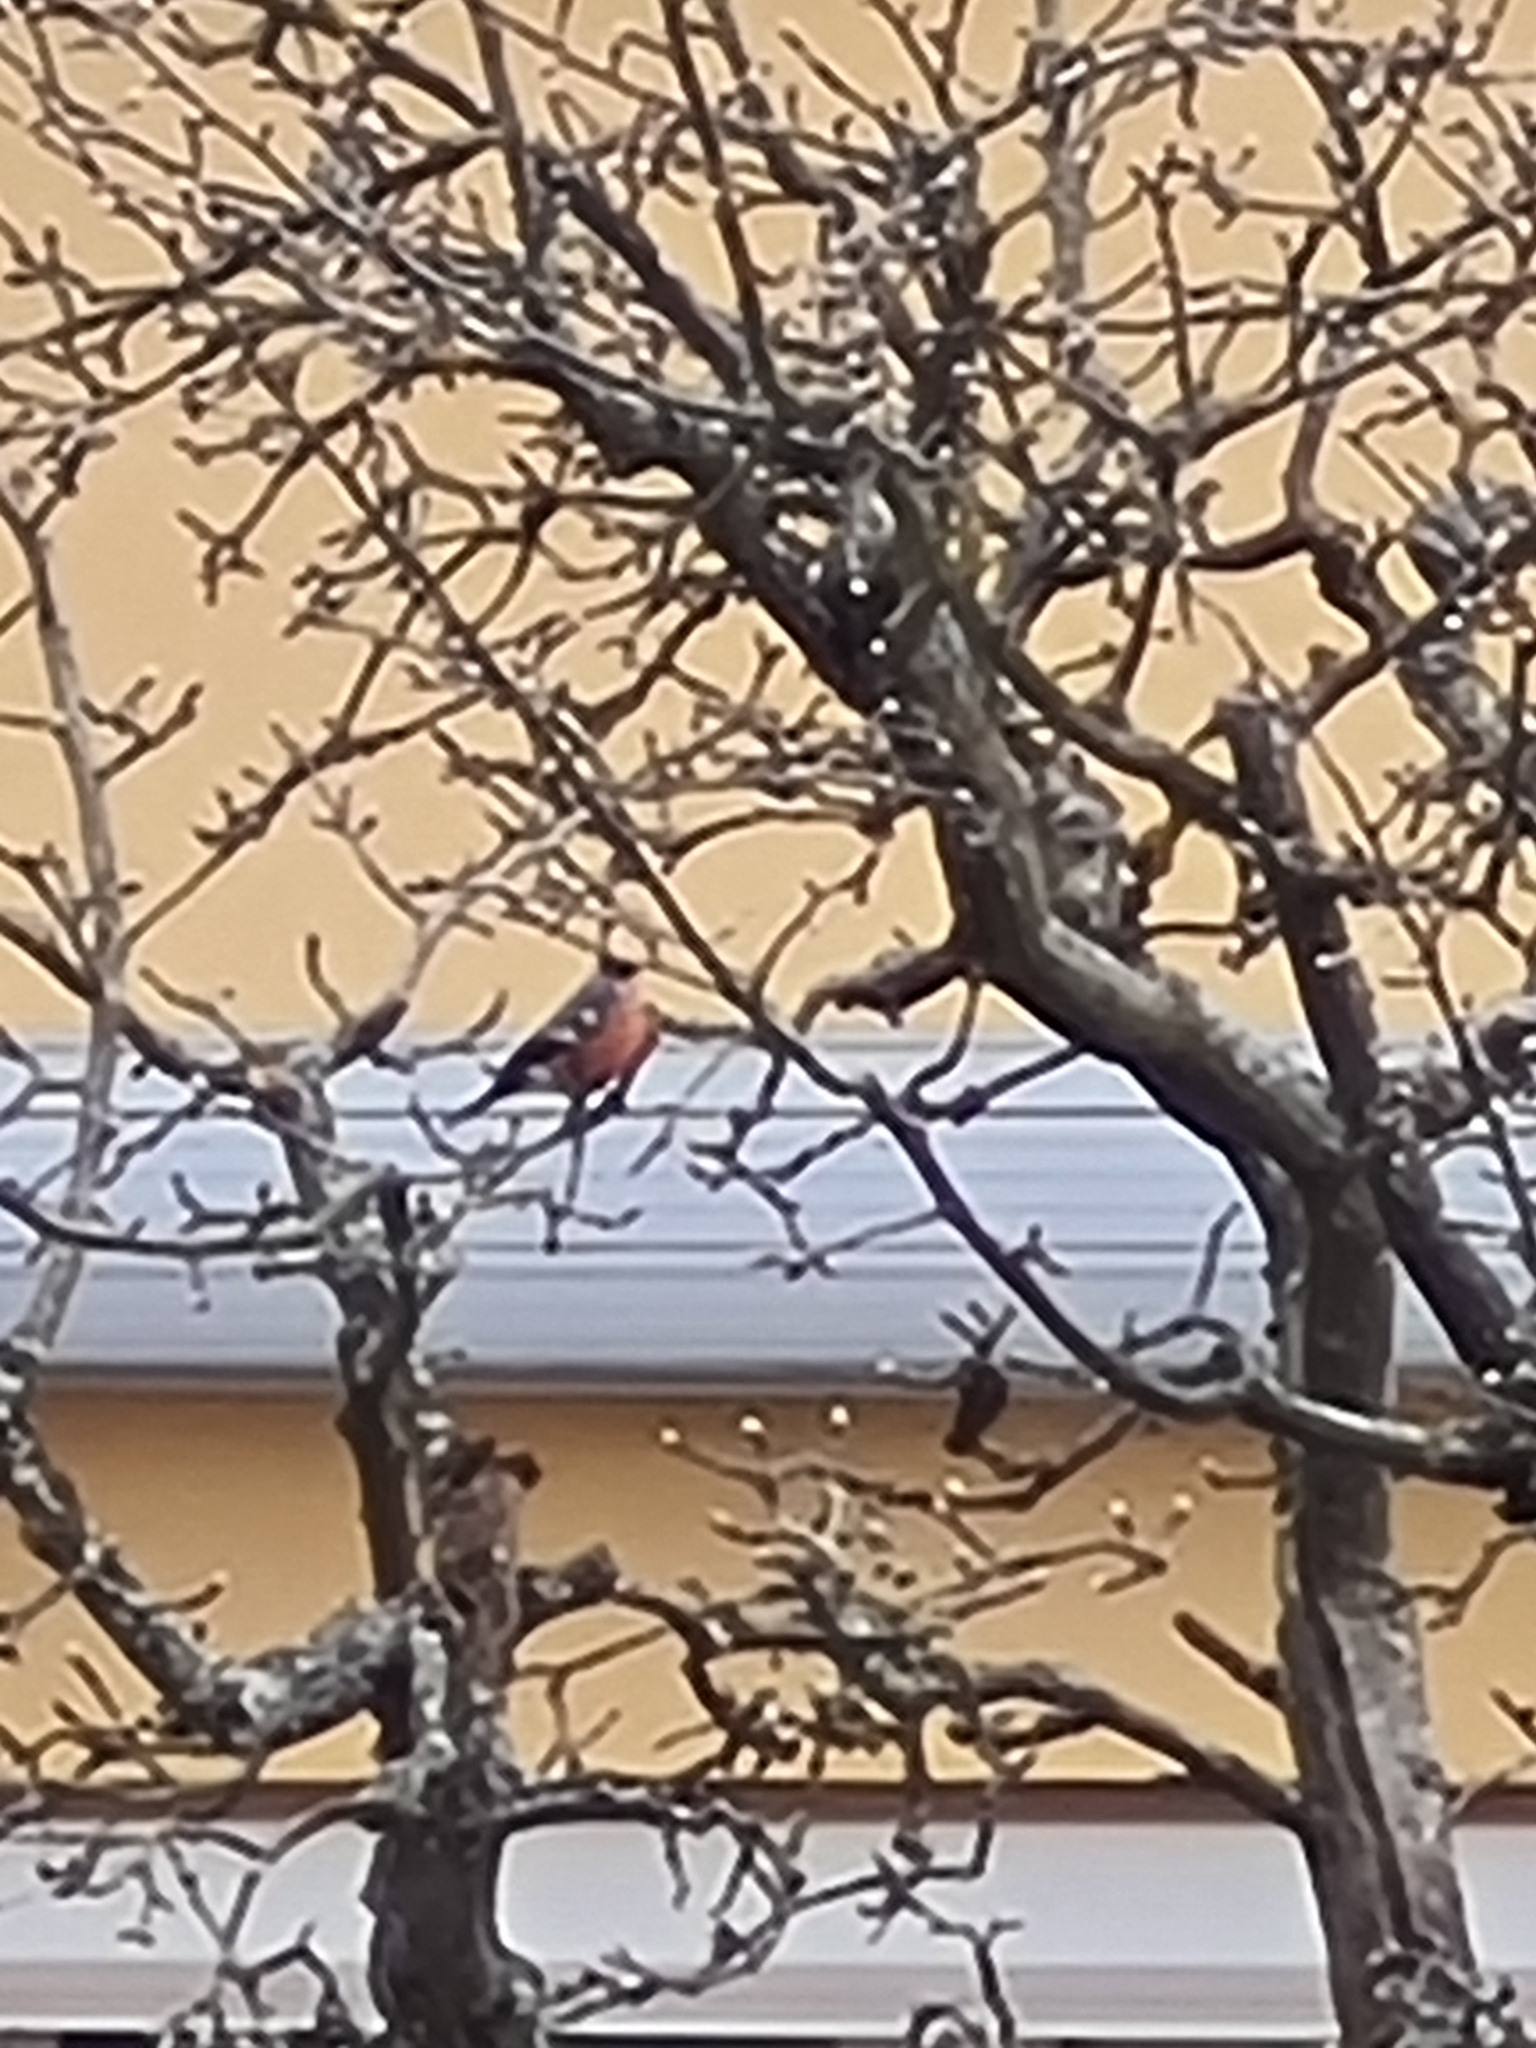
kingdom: Animalia
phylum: Chordata
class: Aves
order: Passeriformes
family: Fringillidae
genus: Pyrrhula
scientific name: Pyrrhula pyrrhula
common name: Eurasian bullfinch
